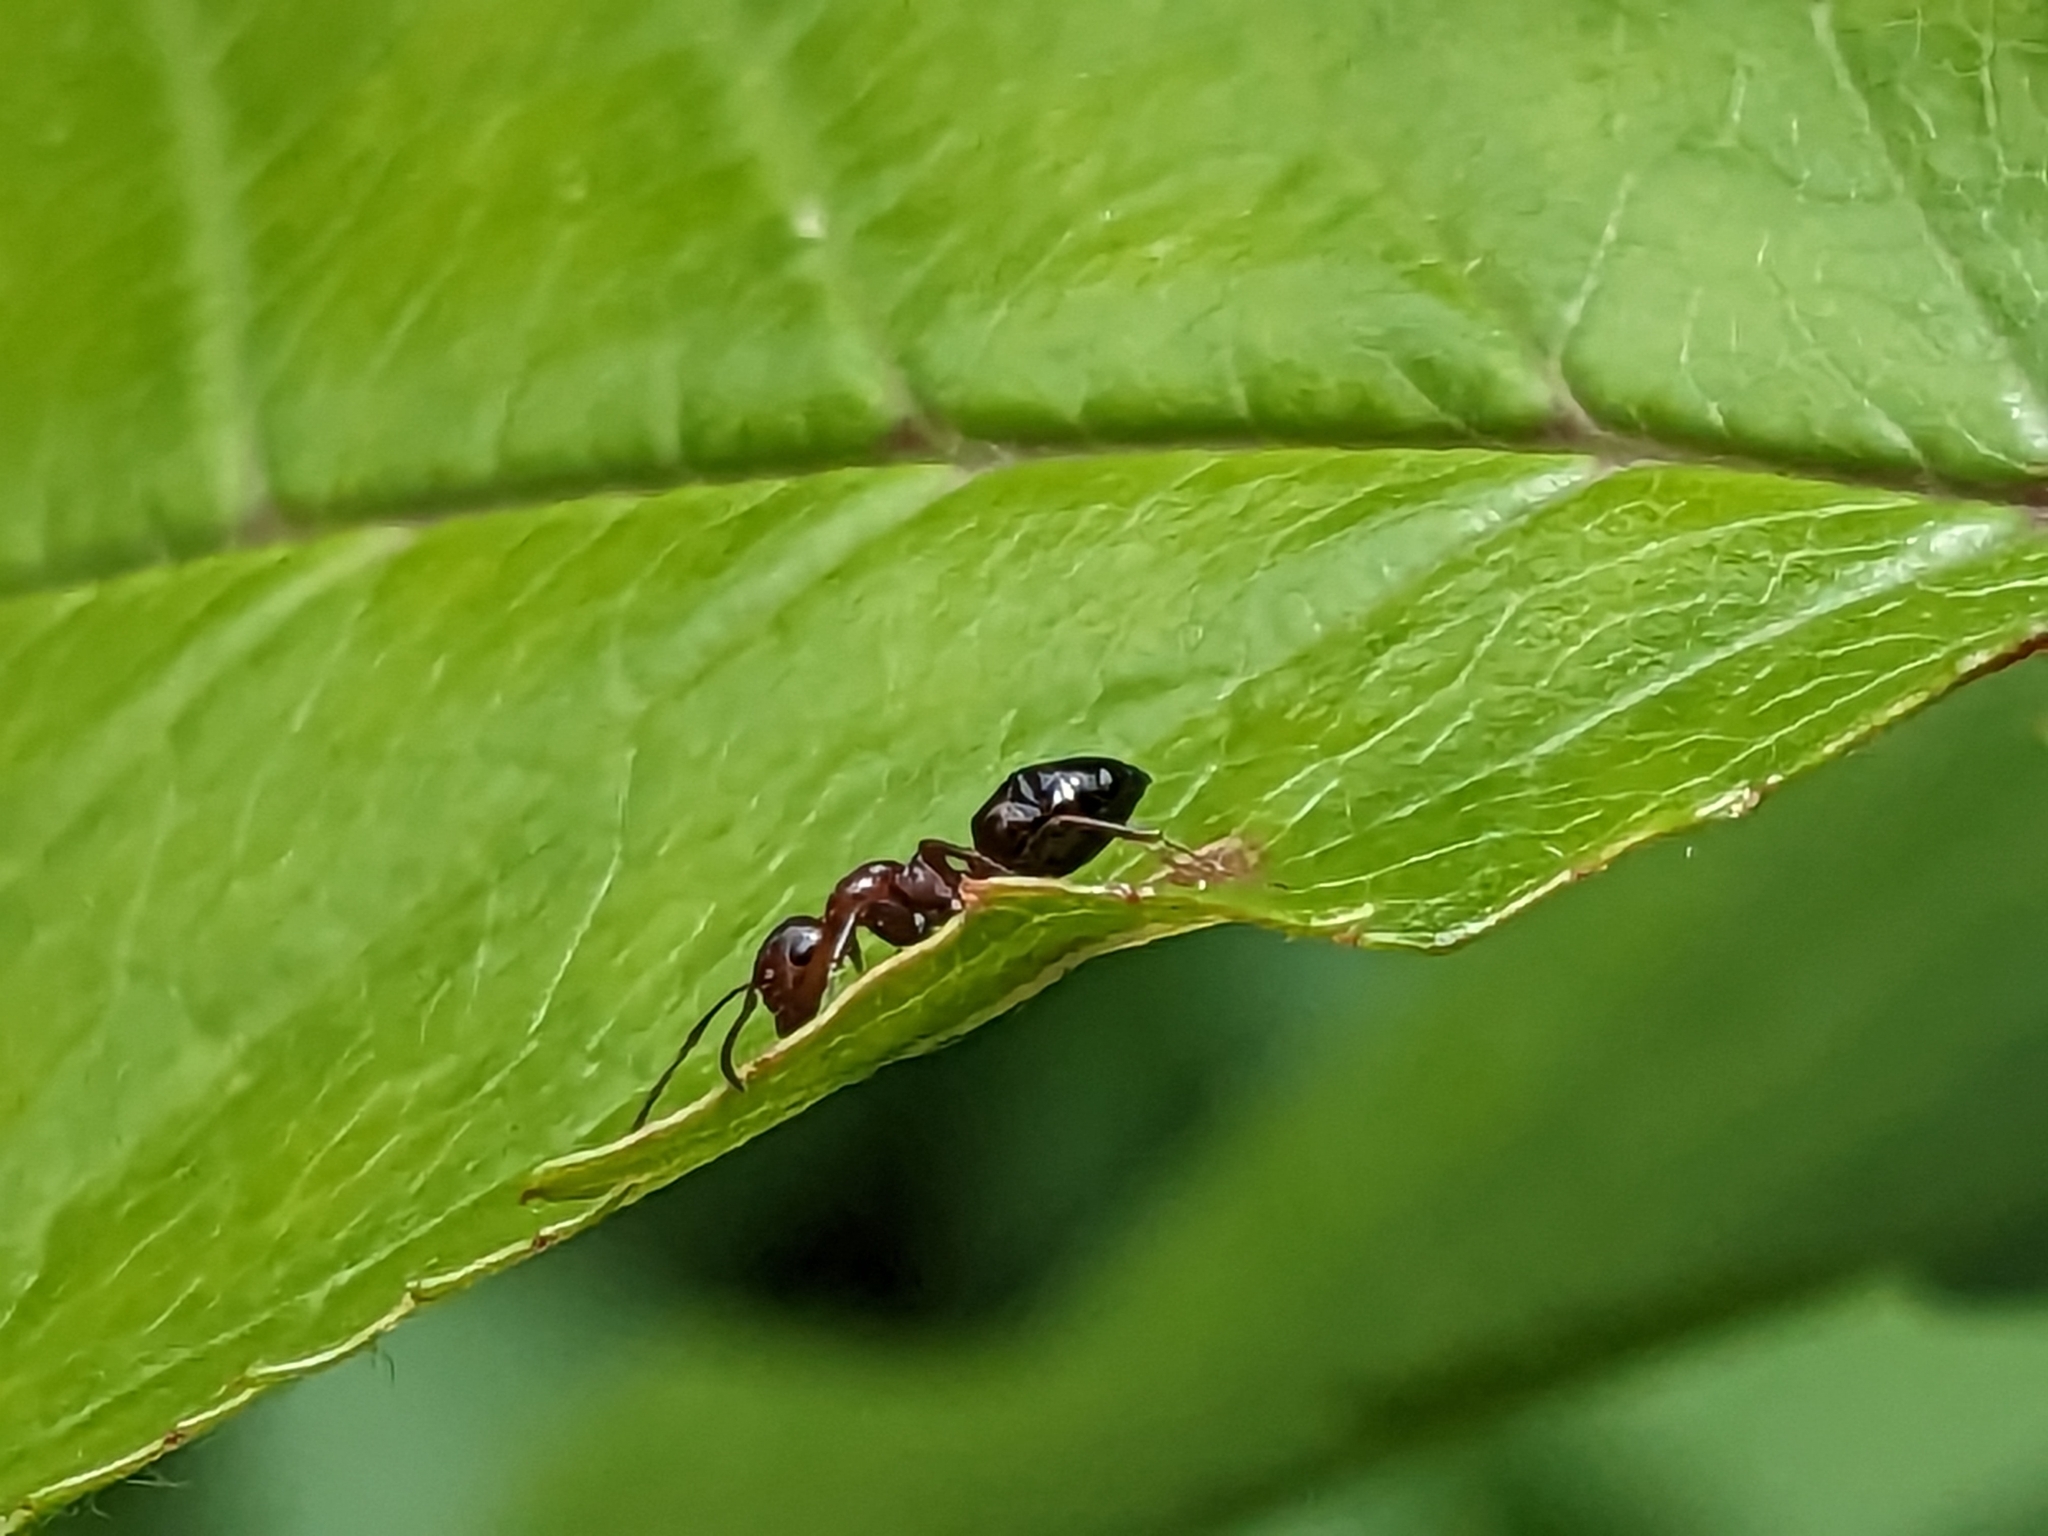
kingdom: Animalia
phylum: Arthropoda
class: Insecta
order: Hymenoptera
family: Formicidae
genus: Camponotus
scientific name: Camponotus lateralis
